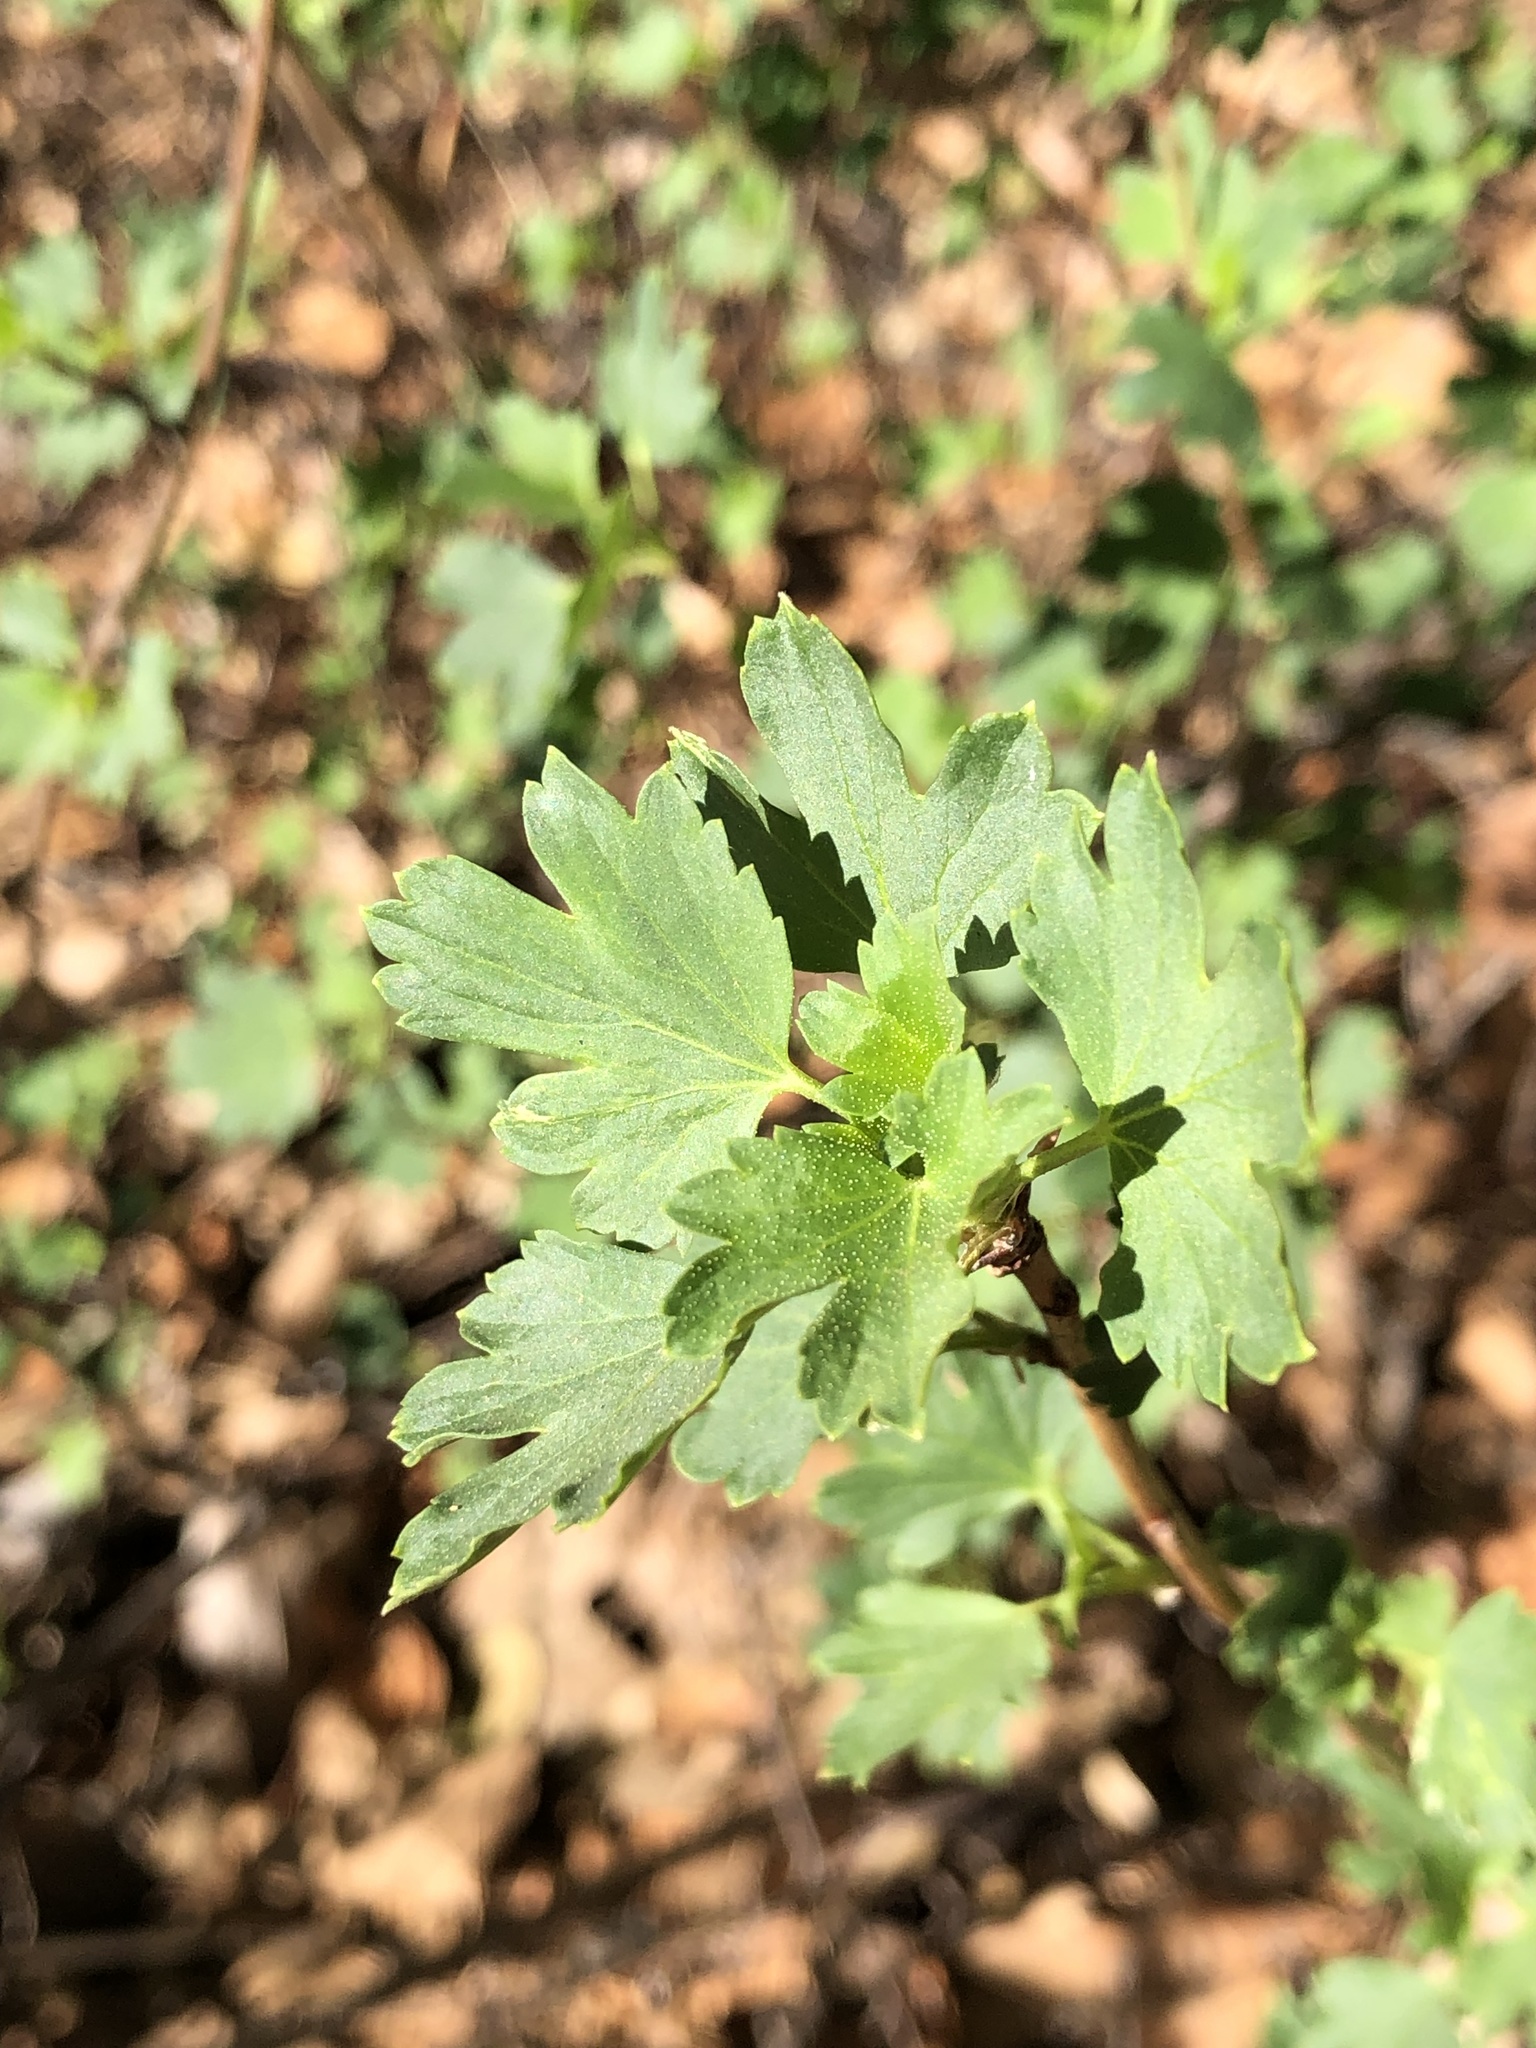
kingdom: Plantae
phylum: Tracheophyta
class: Magnoliopsida
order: Saxifragales
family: Grossulariaceae
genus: Ribes
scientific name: Ribes aureum
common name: Golden currant
